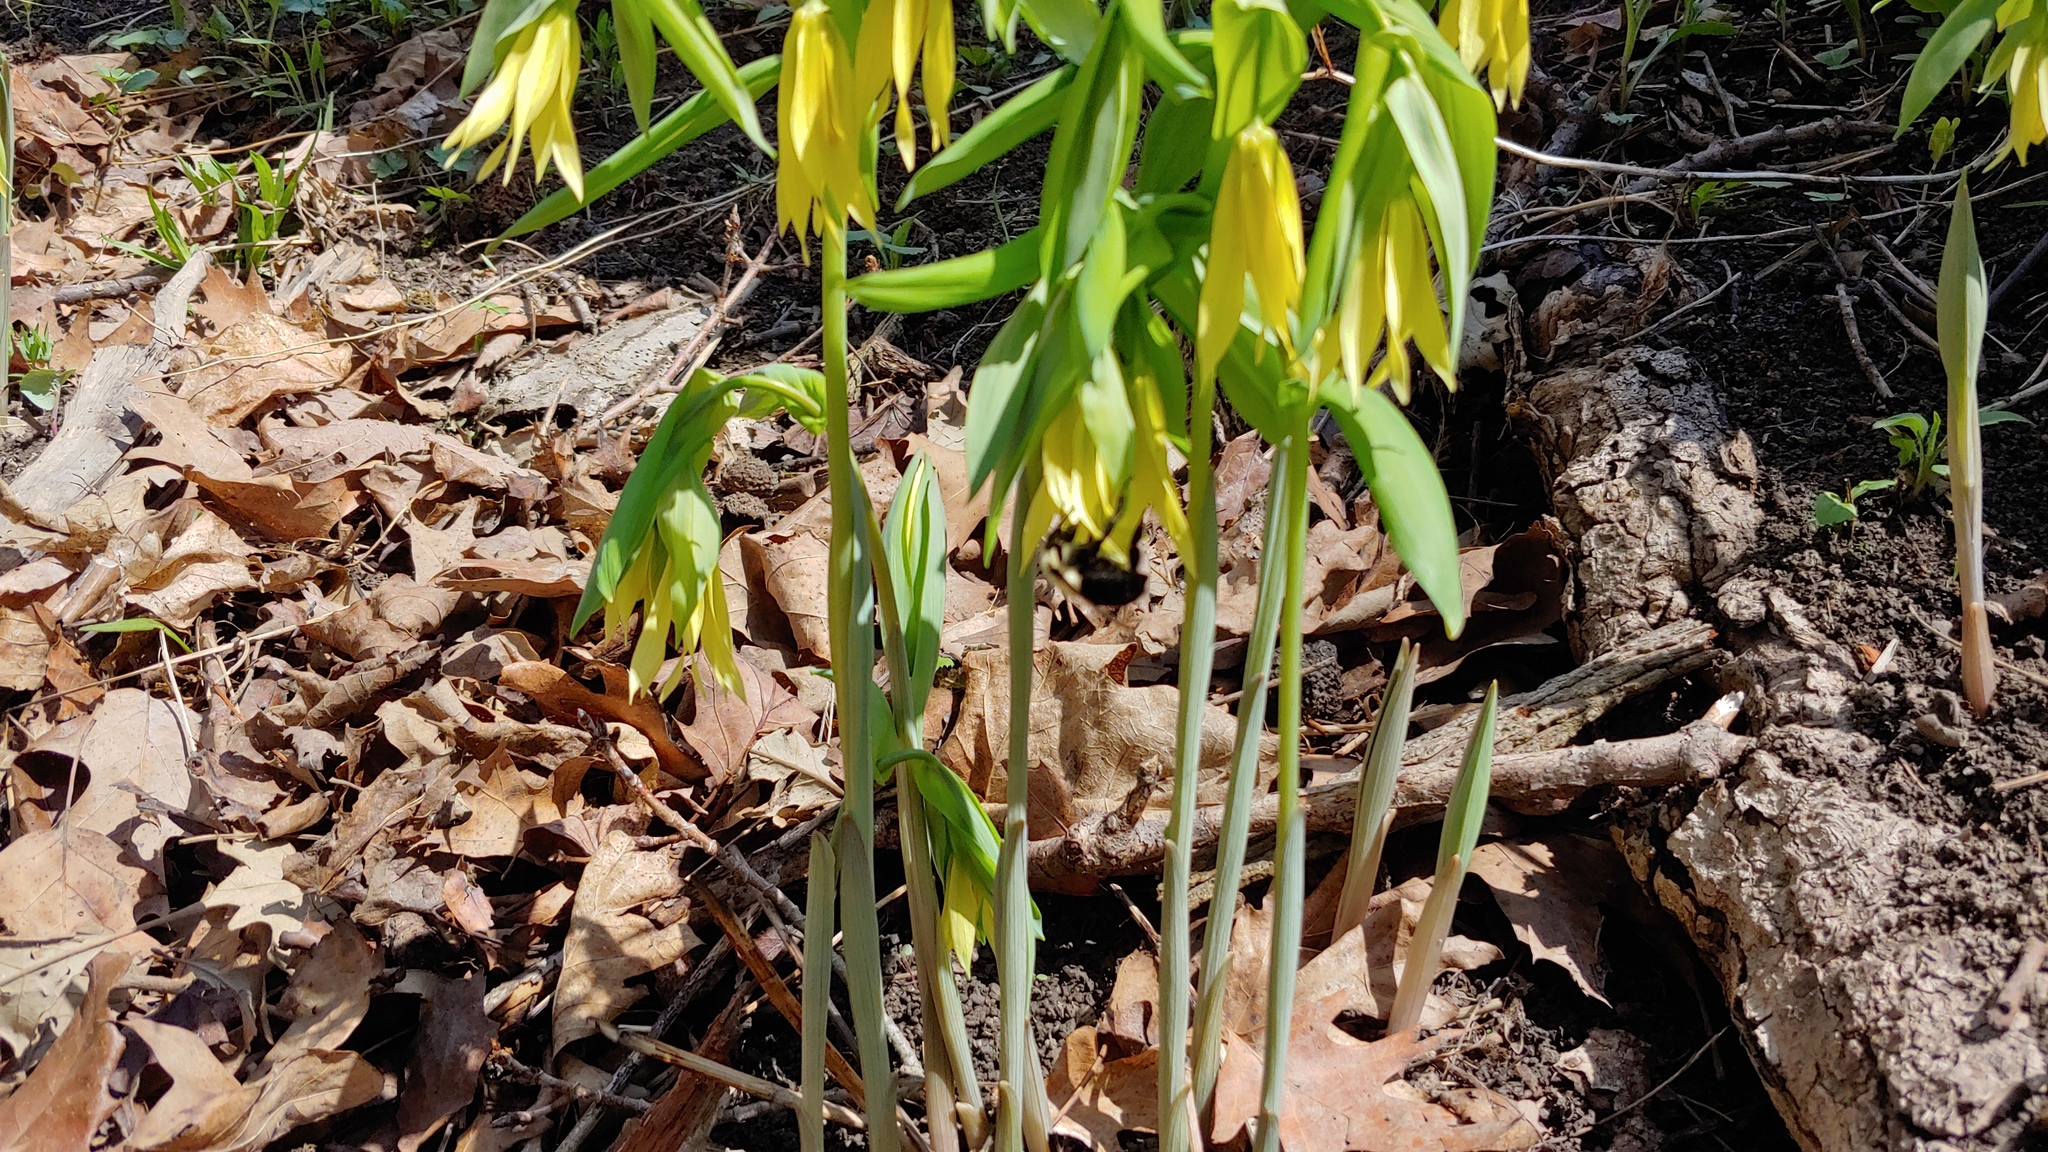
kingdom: Animalia
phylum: Arthropoda
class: Insecta
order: Hymenoptera
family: Apidae
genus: Bombus
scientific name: Bombus impatiens
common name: Common eastern bumble bee
